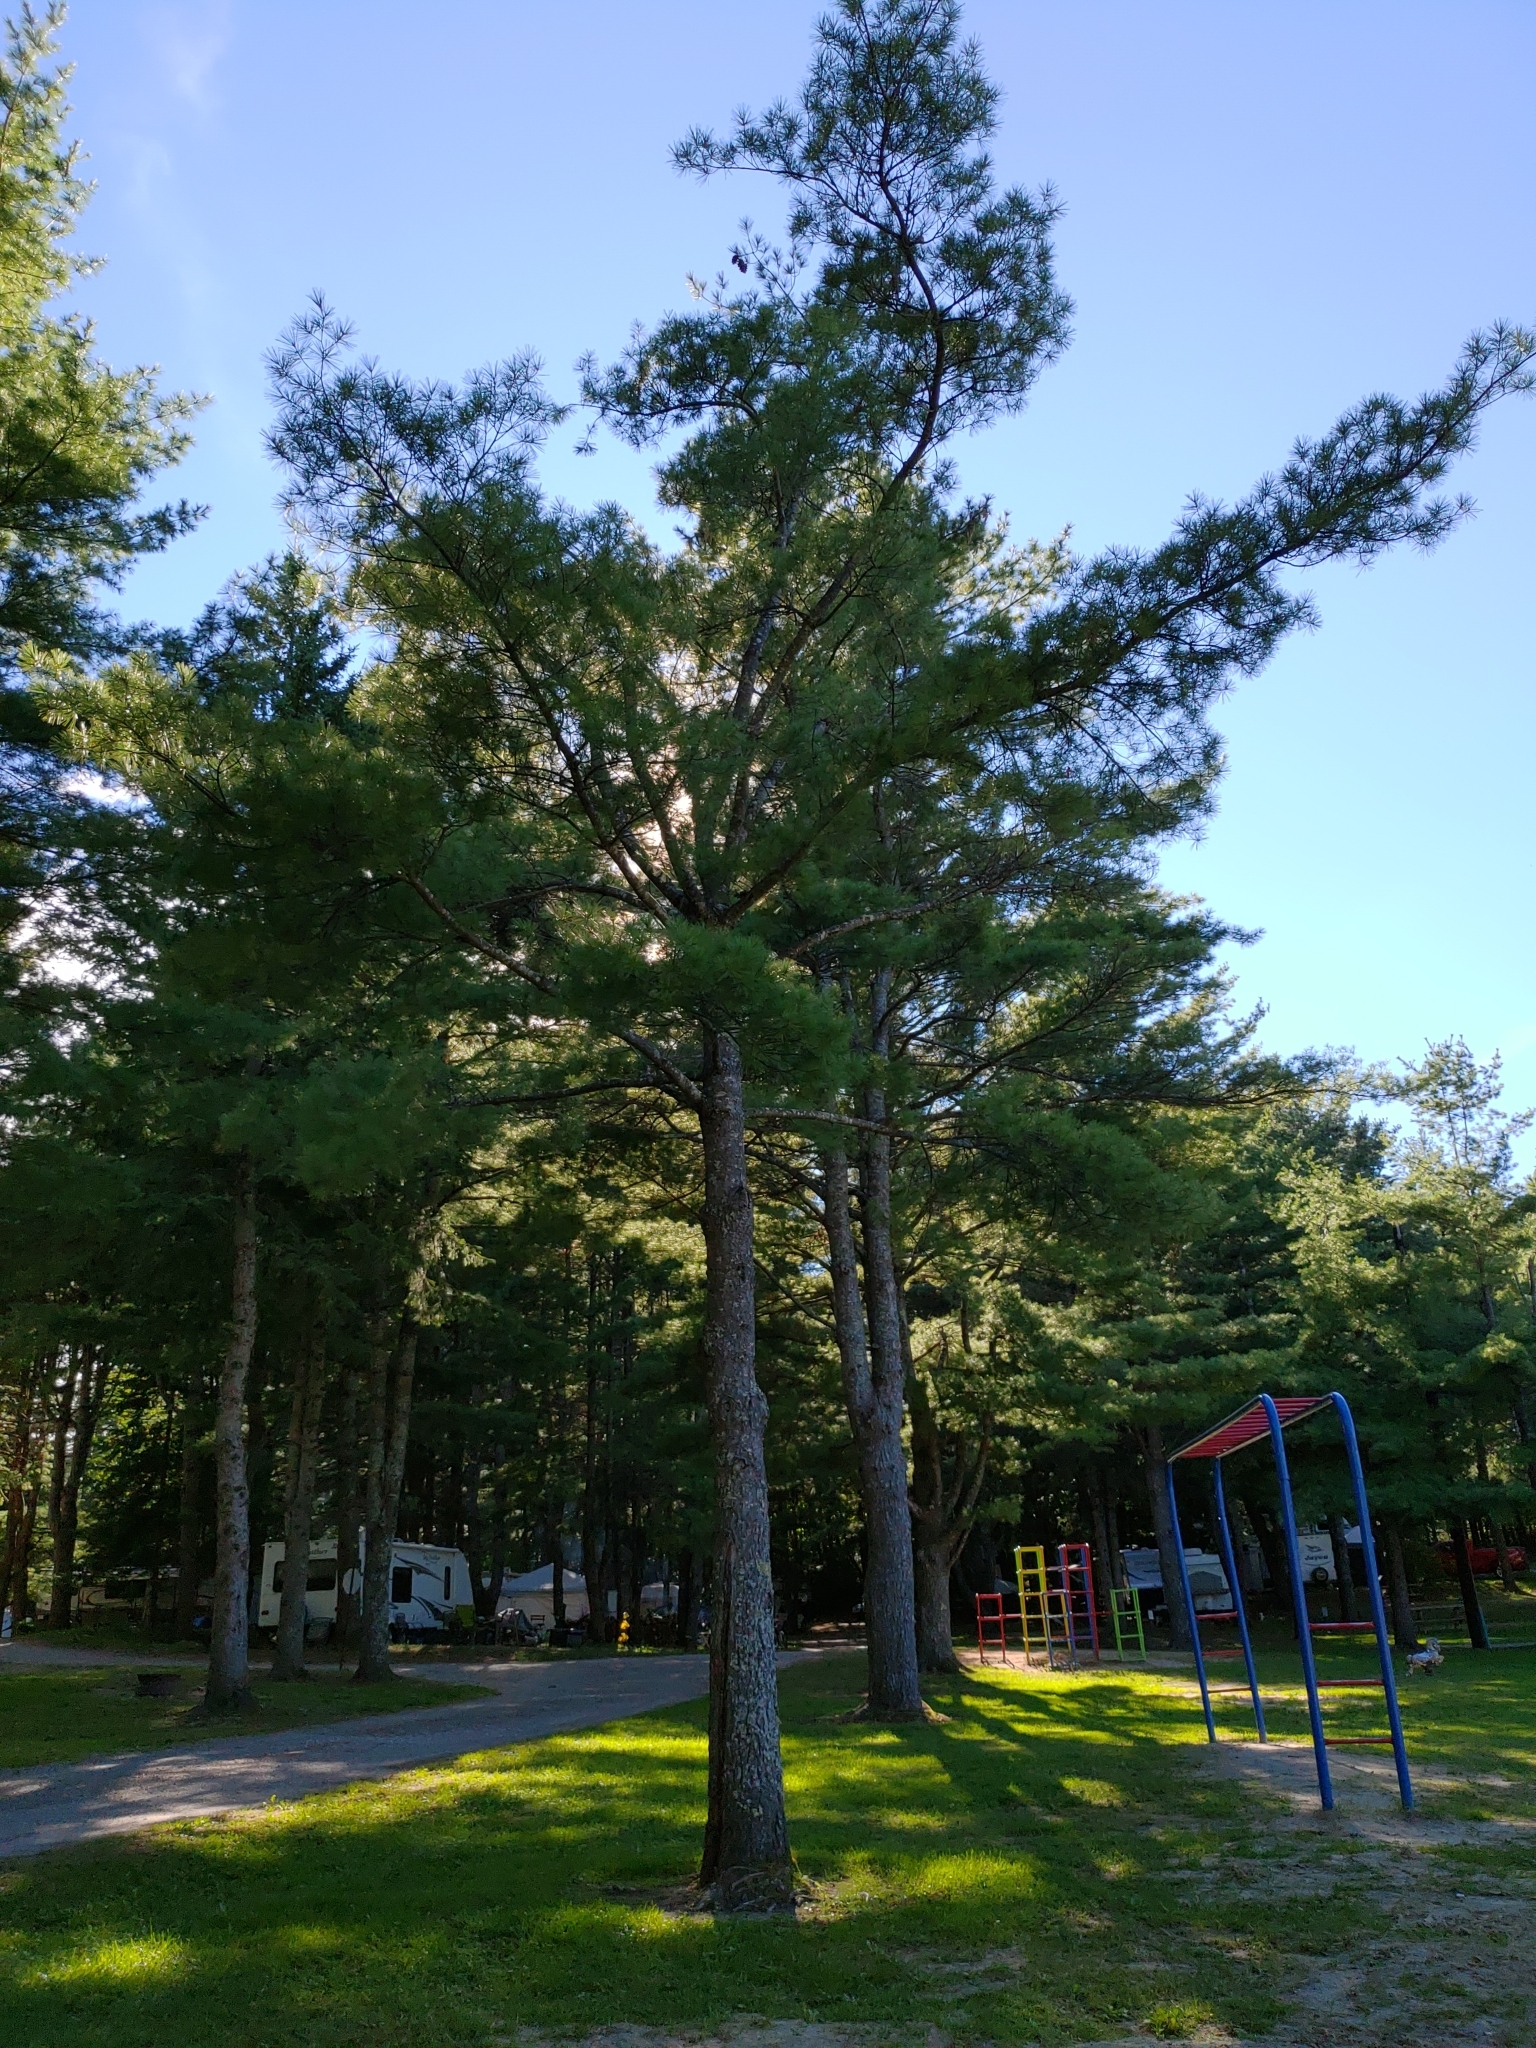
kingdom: Plantae
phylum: Tracheophyta
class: Pinopsida
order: Pinales
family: Pinaceae
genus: Pinus
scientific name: Pinus strobus
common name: Weymouth pine
